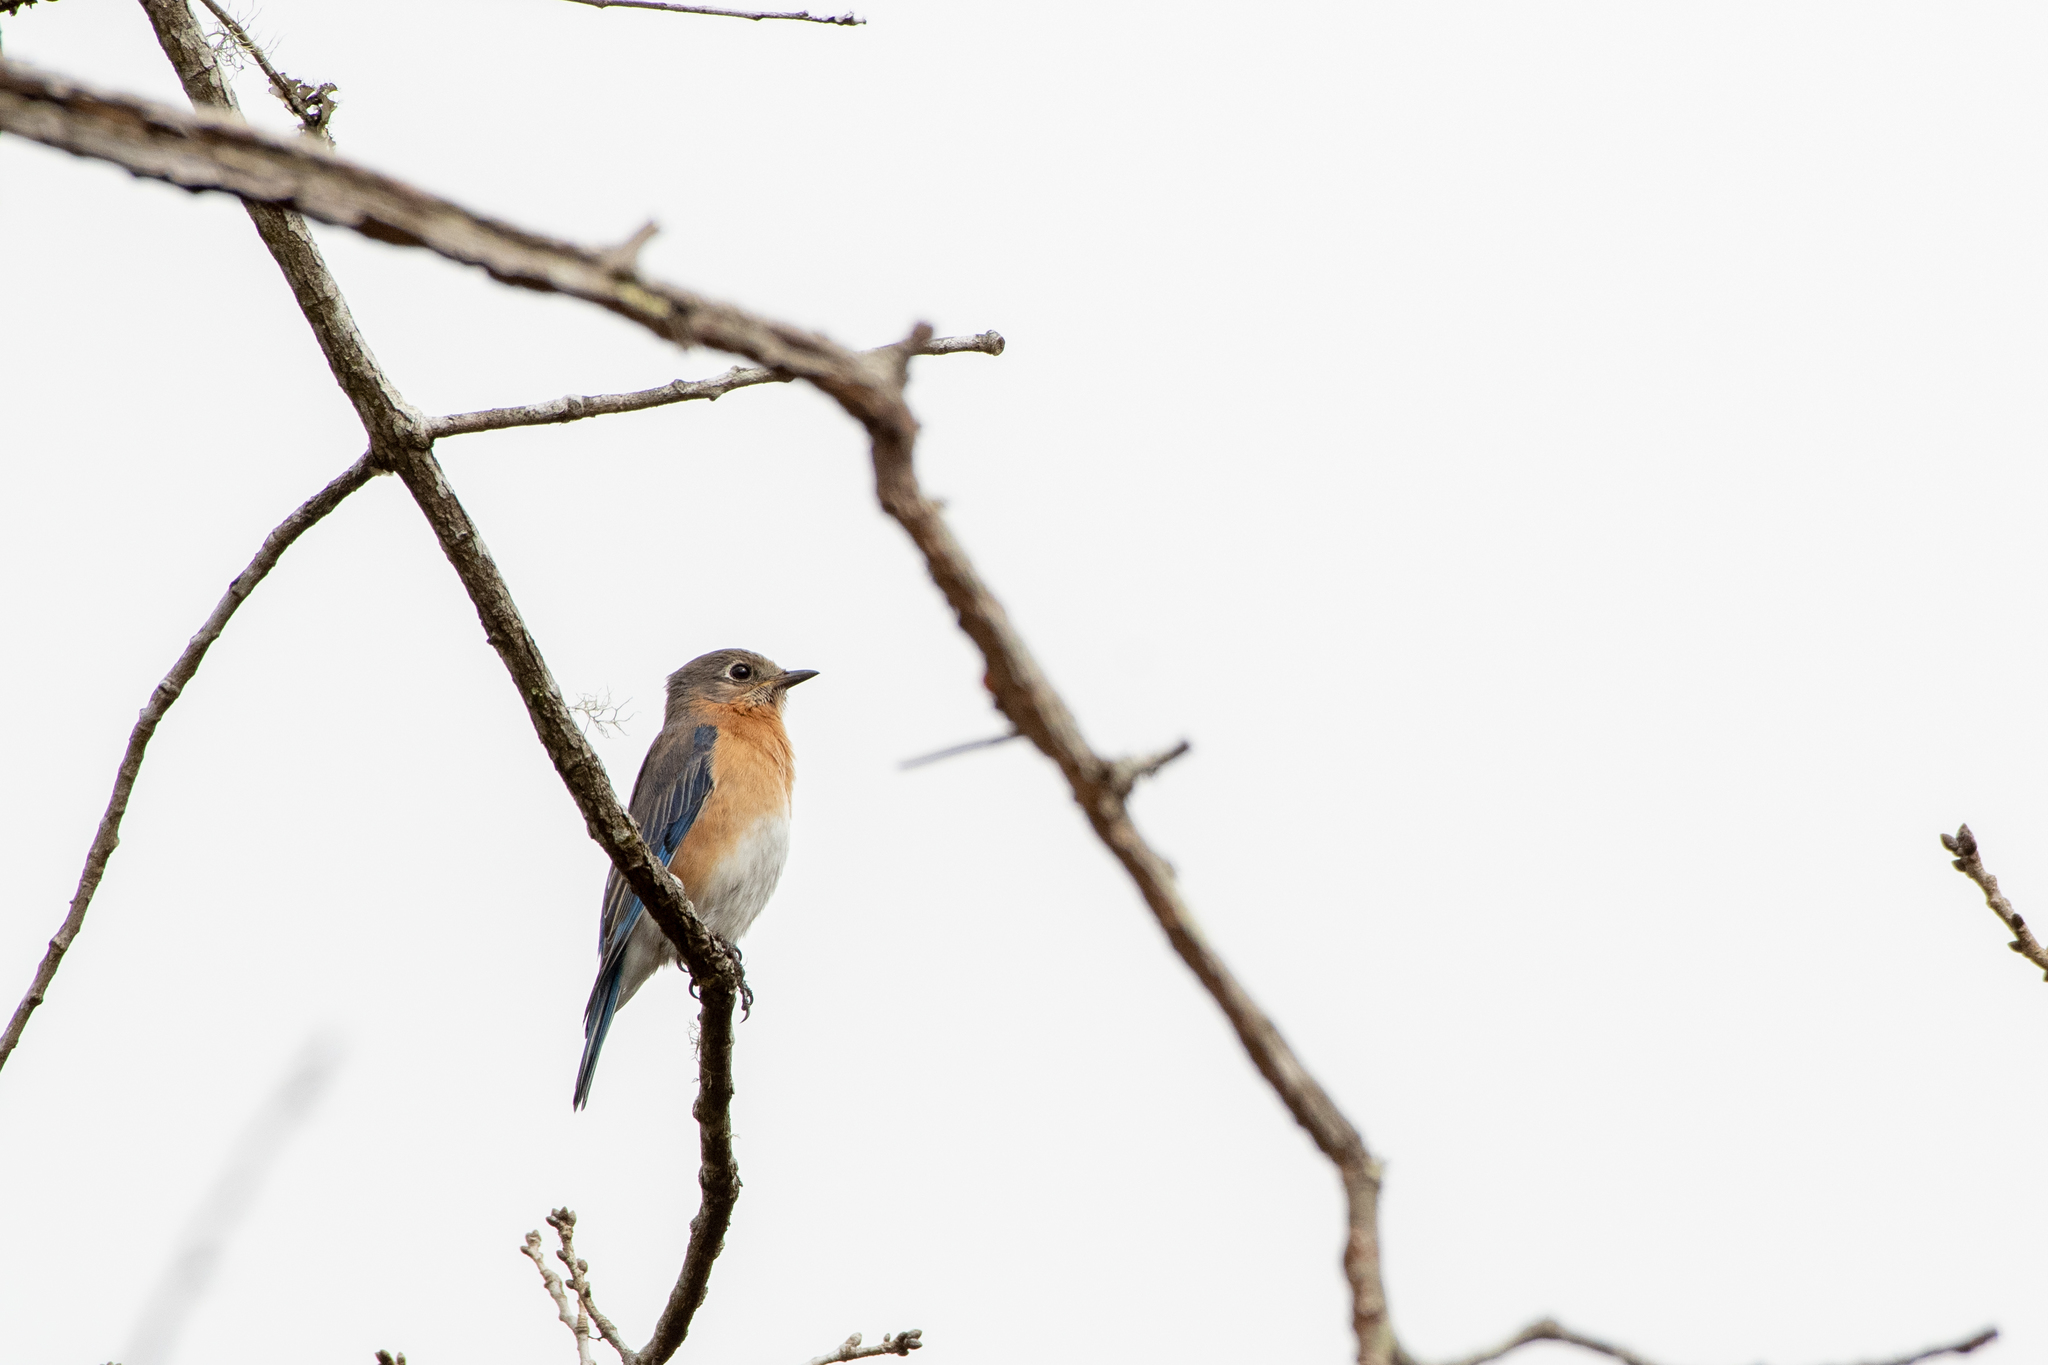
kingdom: Animalia
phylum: Chordata
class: Aves
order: Passeriformes
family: Turdidae
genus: Sialia
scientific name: Sialia sialis
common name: Eastern bluebird
